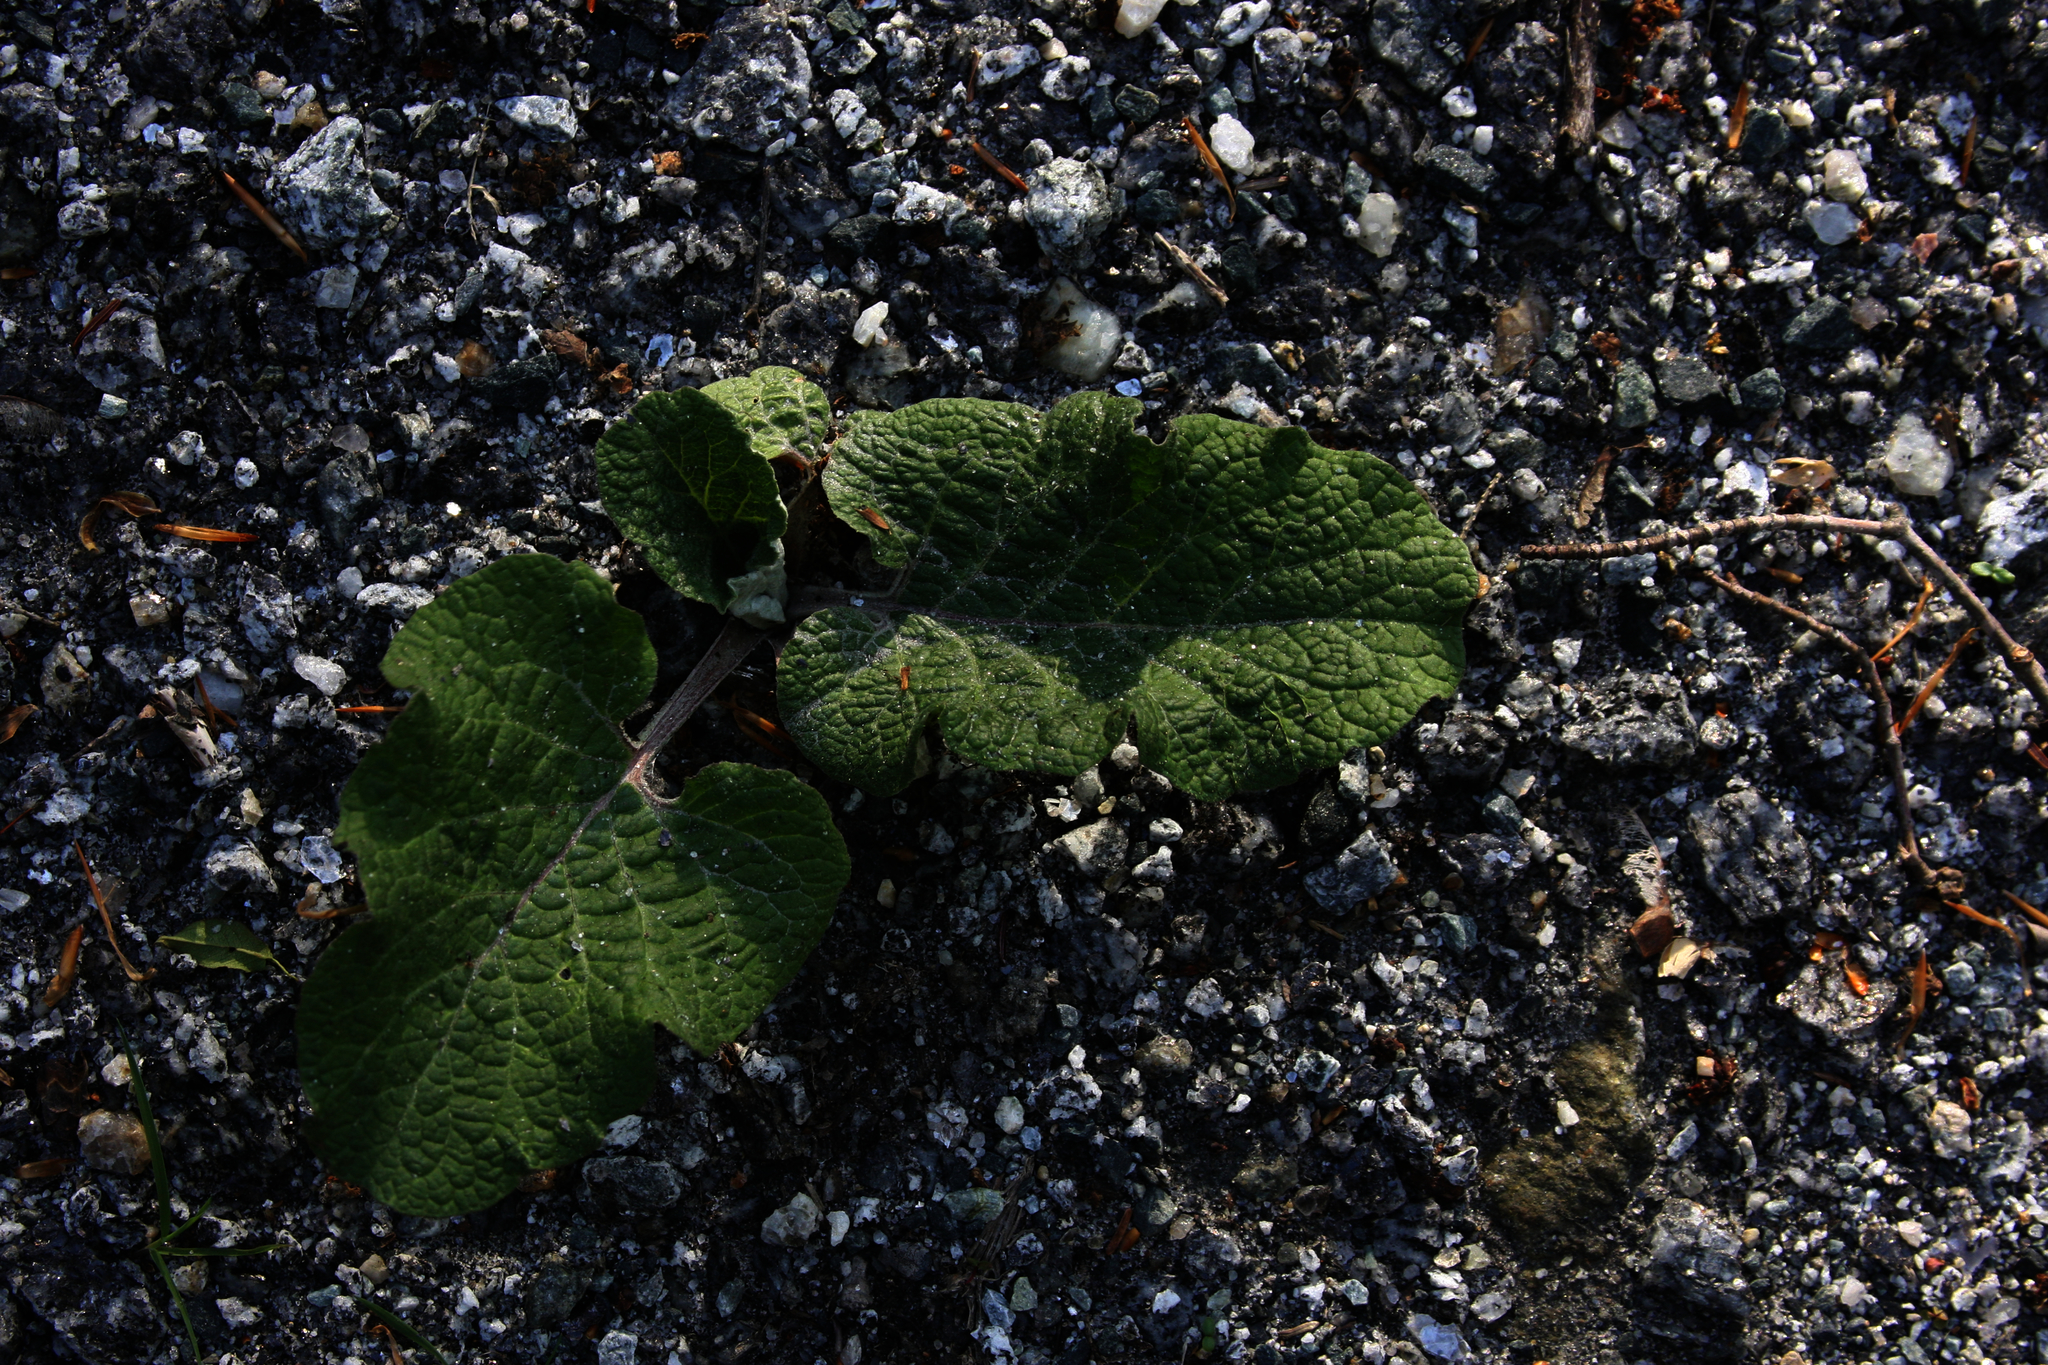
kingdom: Plantae
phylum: Tracheophyta
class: Magnoliopsida
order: Asterales
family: Asteraceae
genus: Arctium
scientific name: Arctium
